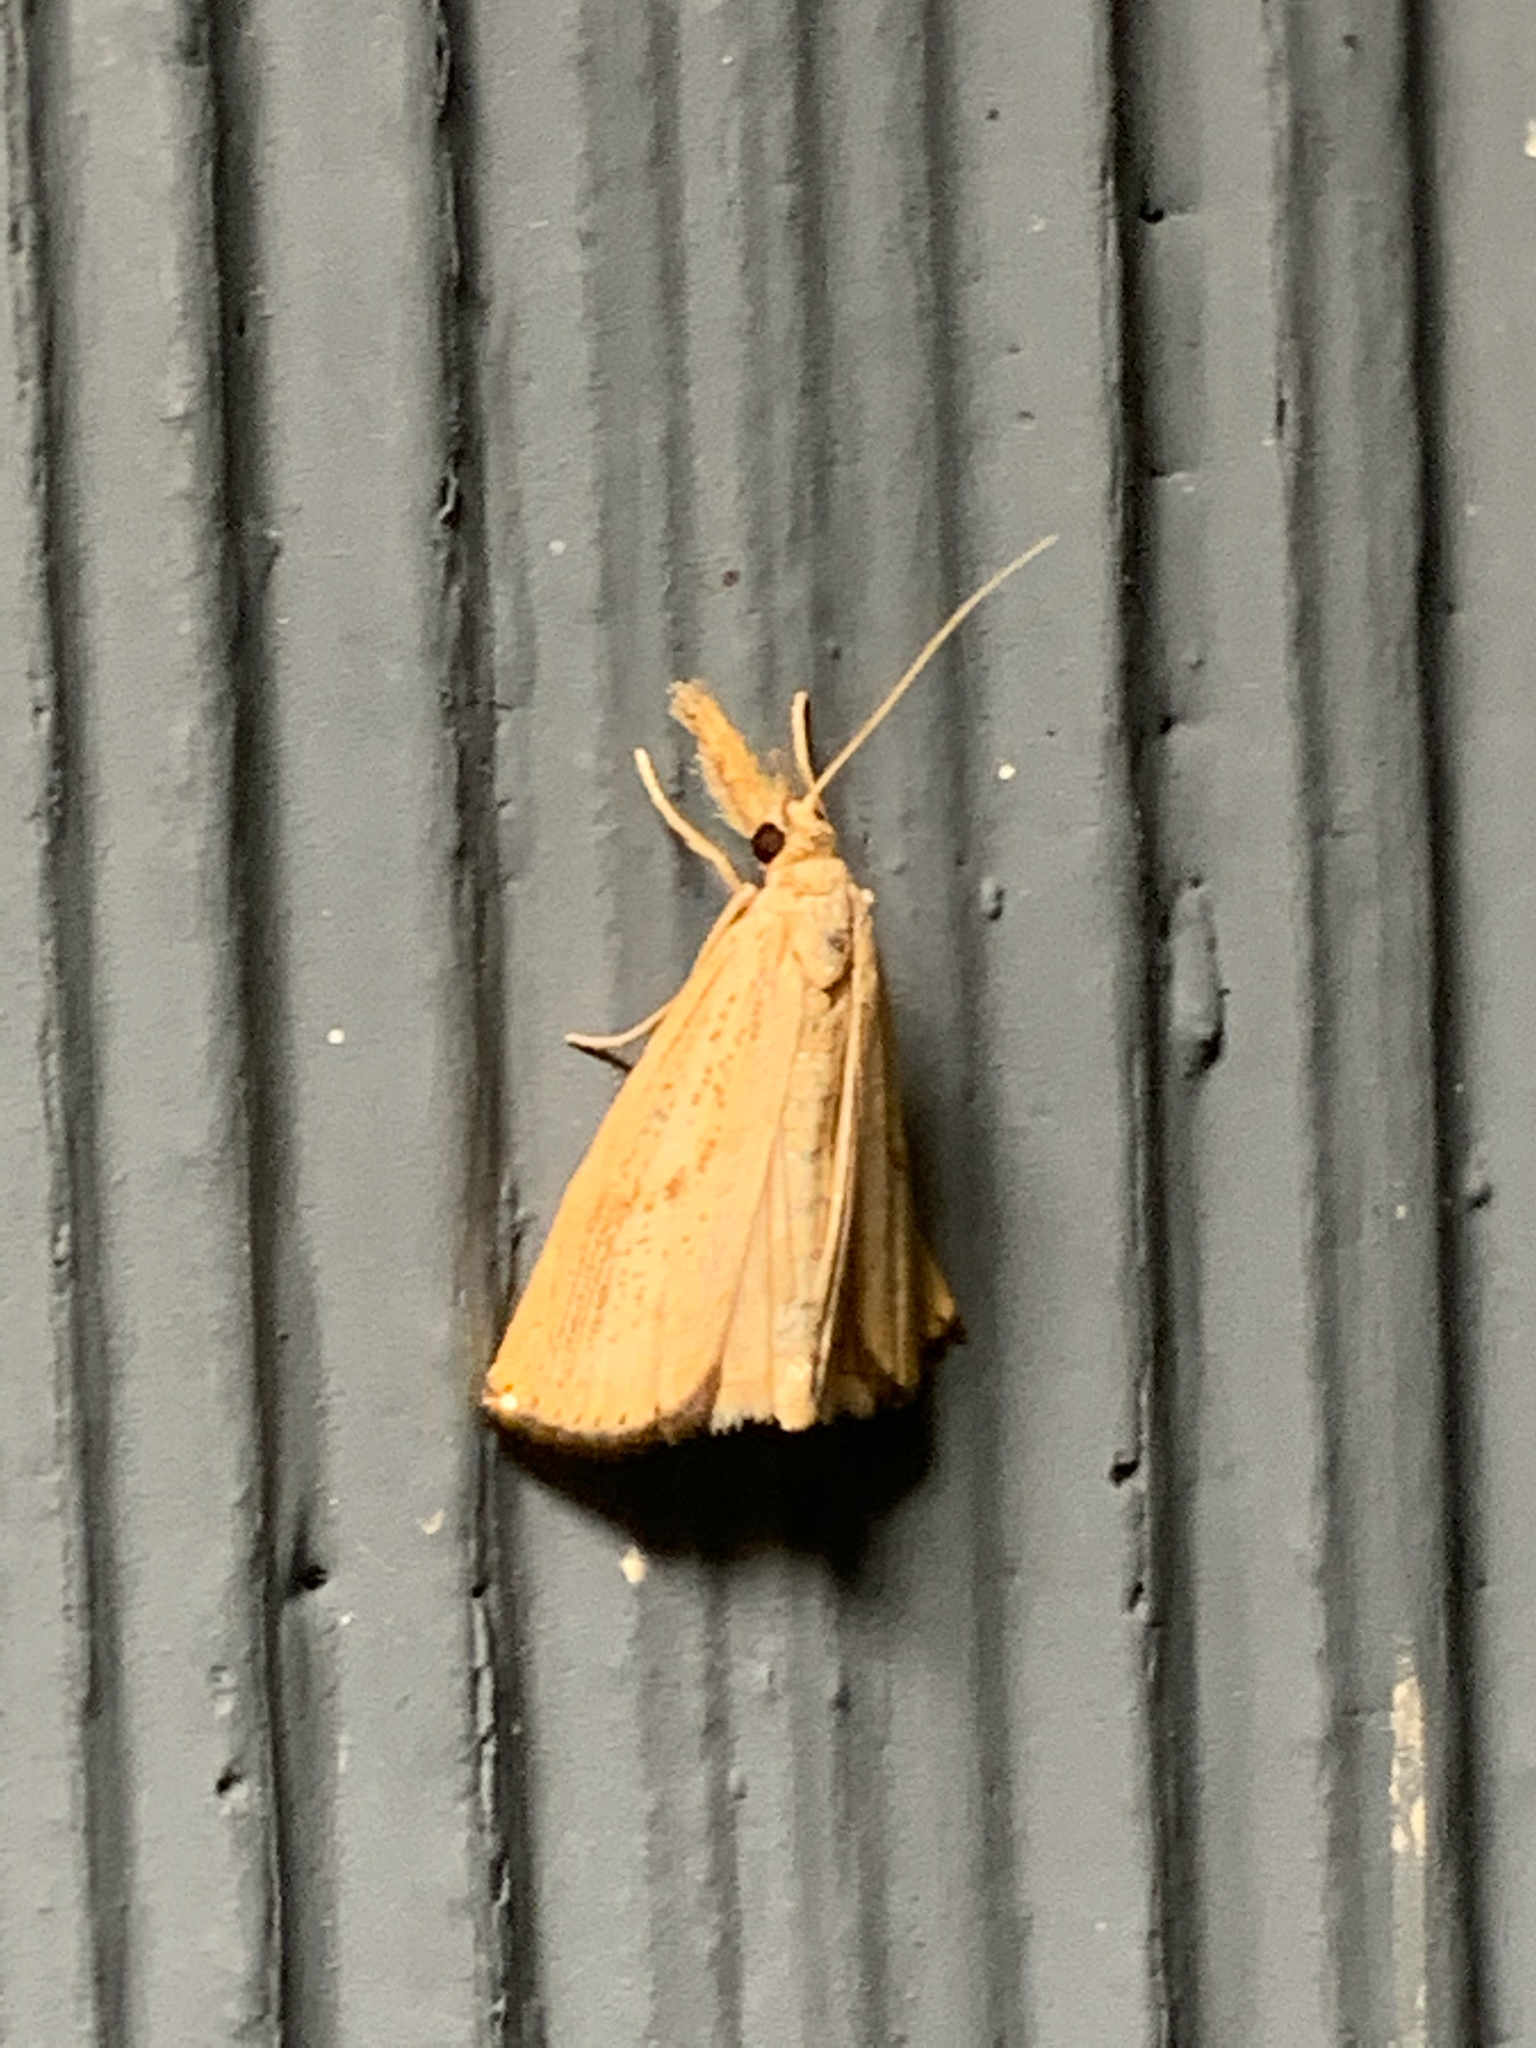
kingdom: Animalia
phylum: Arthropoda
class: Insecta
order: Lepidoptera
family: Crambidae
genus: Agriphila
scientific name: Agriphila ruricolellus
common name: Lesser vagabond sod webworm
